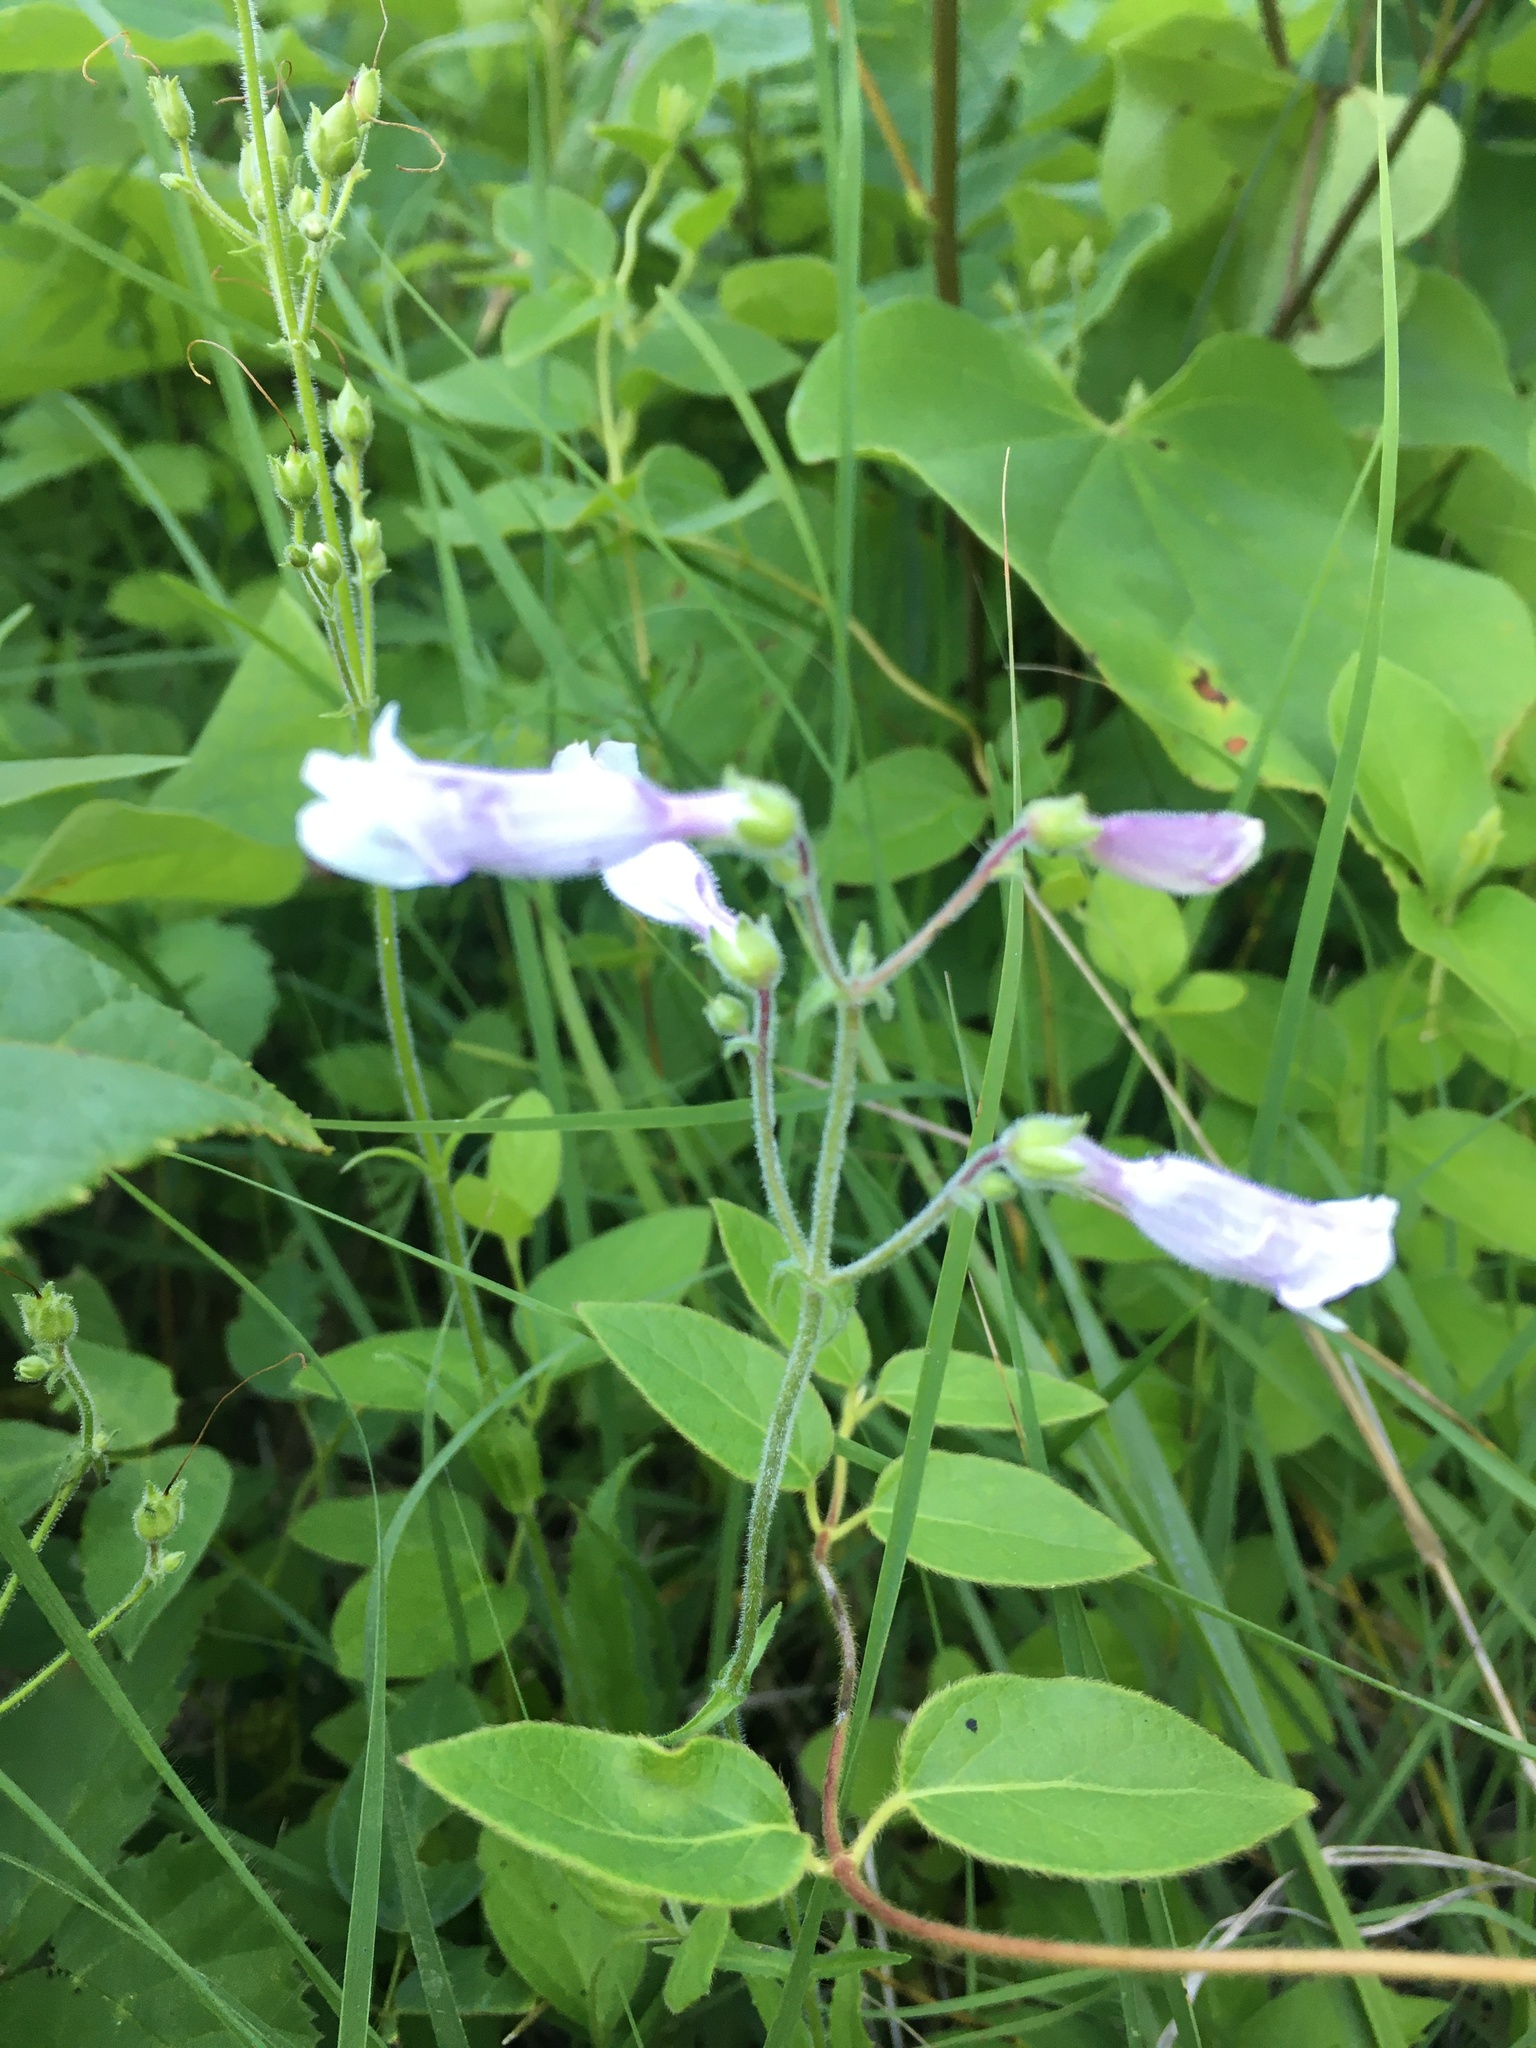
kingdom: Plantae
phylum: Tracheophyta
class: Magnoliopsida
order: Lamiales
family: Plantaginaceae
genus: Penstemon
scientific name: Penstemon hirsutus
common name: Hairy beardtongue
